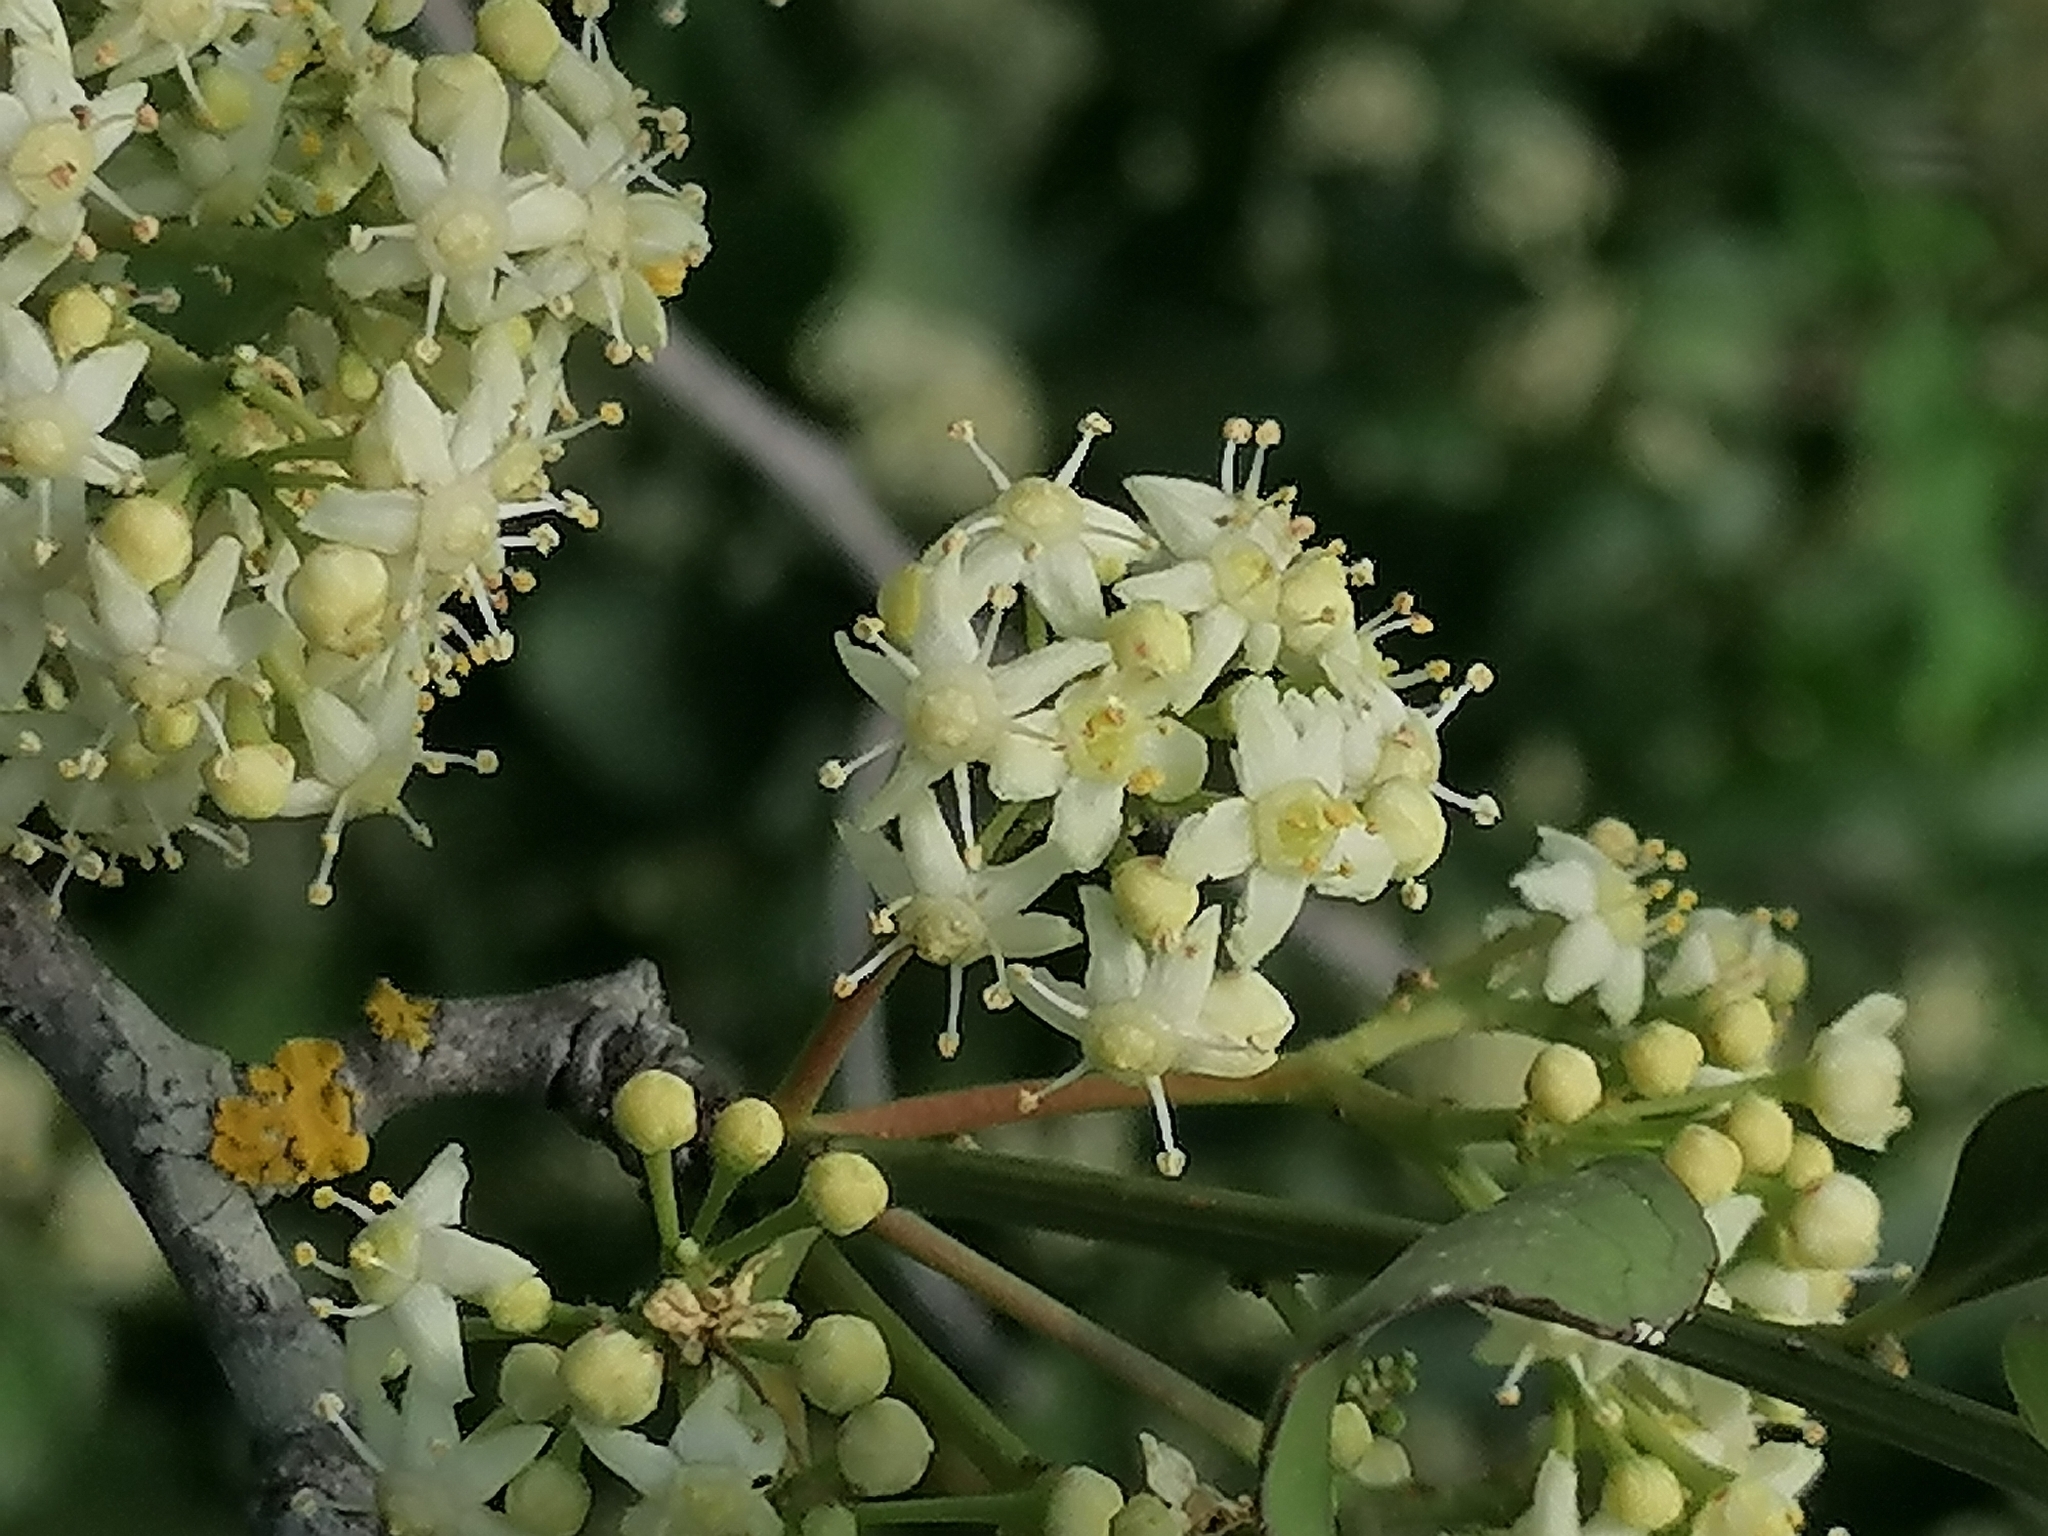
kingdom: Plantae
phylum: Tracheophyta
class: Magnoliopsida
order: Celastrales
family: Celastraceae
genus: Gymnosporia
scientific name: Gymnosporia buxifolia
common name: Common spike-thorn
